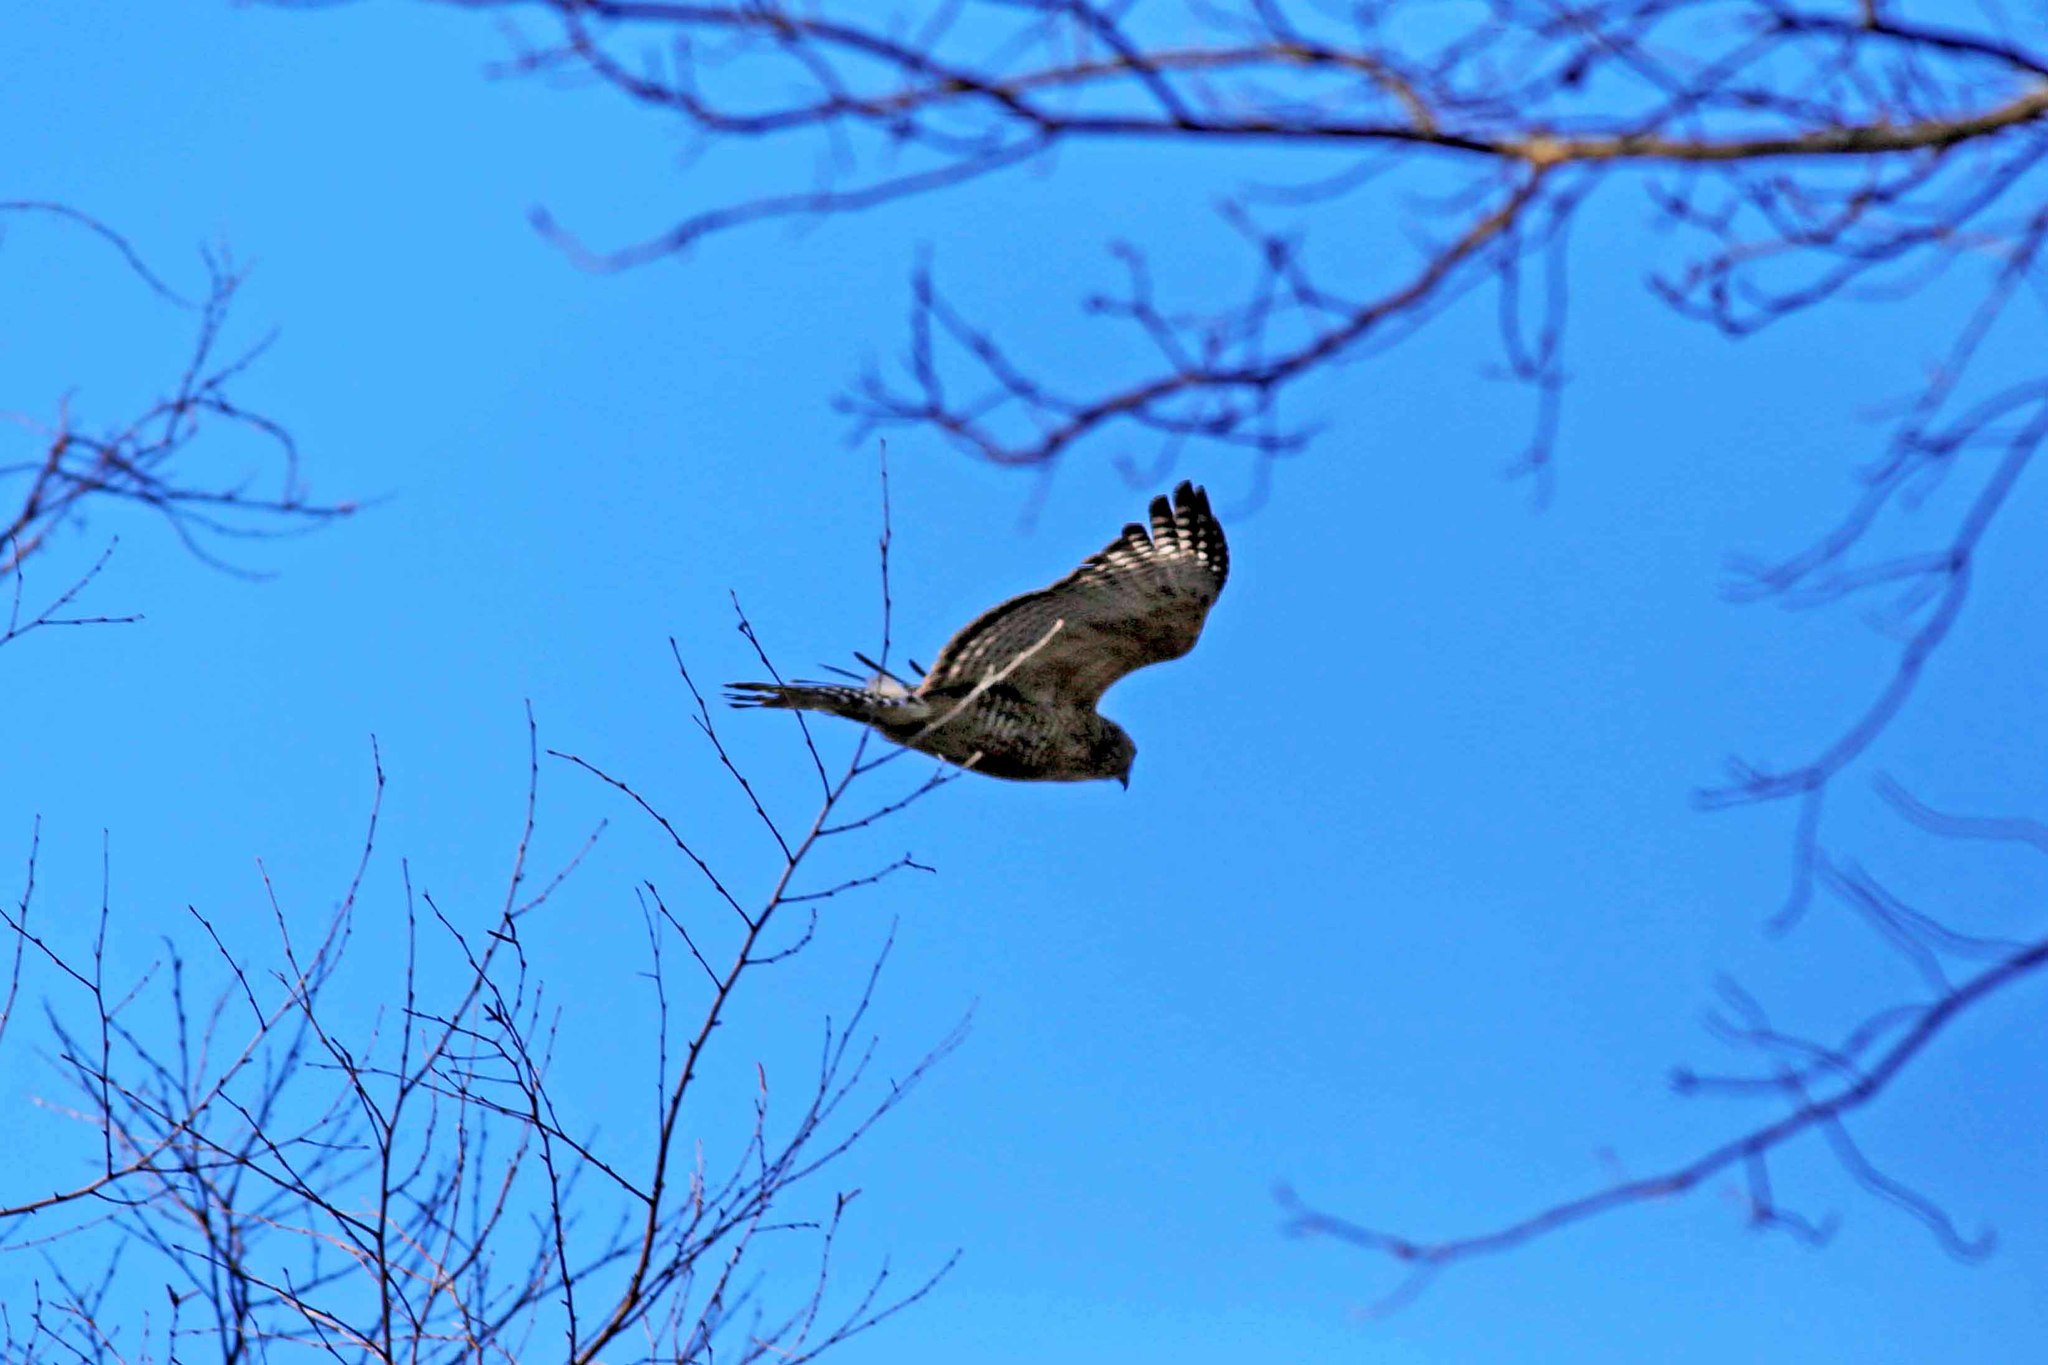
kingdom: Animalia
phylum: Chordata
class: Aves
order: Accipitriformes
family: Accipitridae
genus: Buteo
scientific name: Buteo lineatus
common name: Red-shouldered hawk
